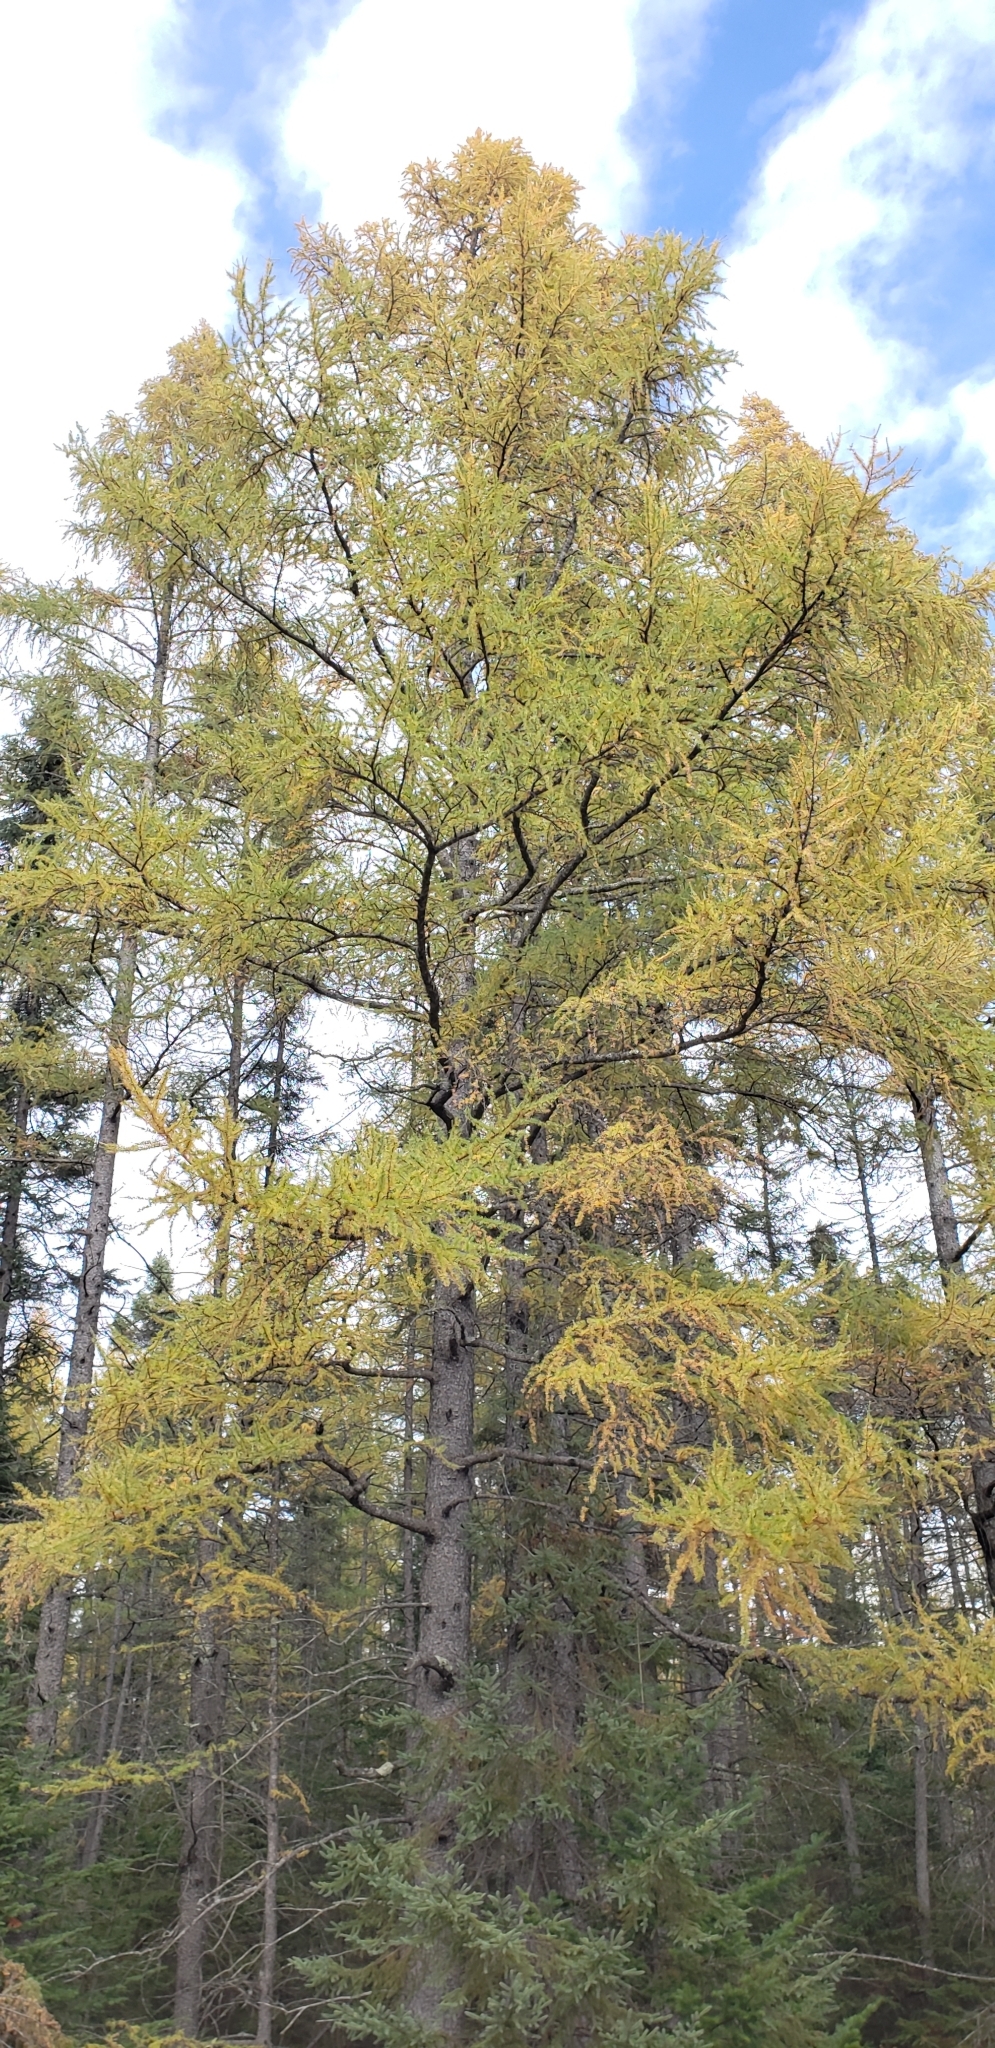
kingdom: Plantae
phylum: Tracheophyta
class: Pinopsida
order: Pinales
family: Pinaceae
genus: Larix
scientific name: Larix laricina
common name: American larch
